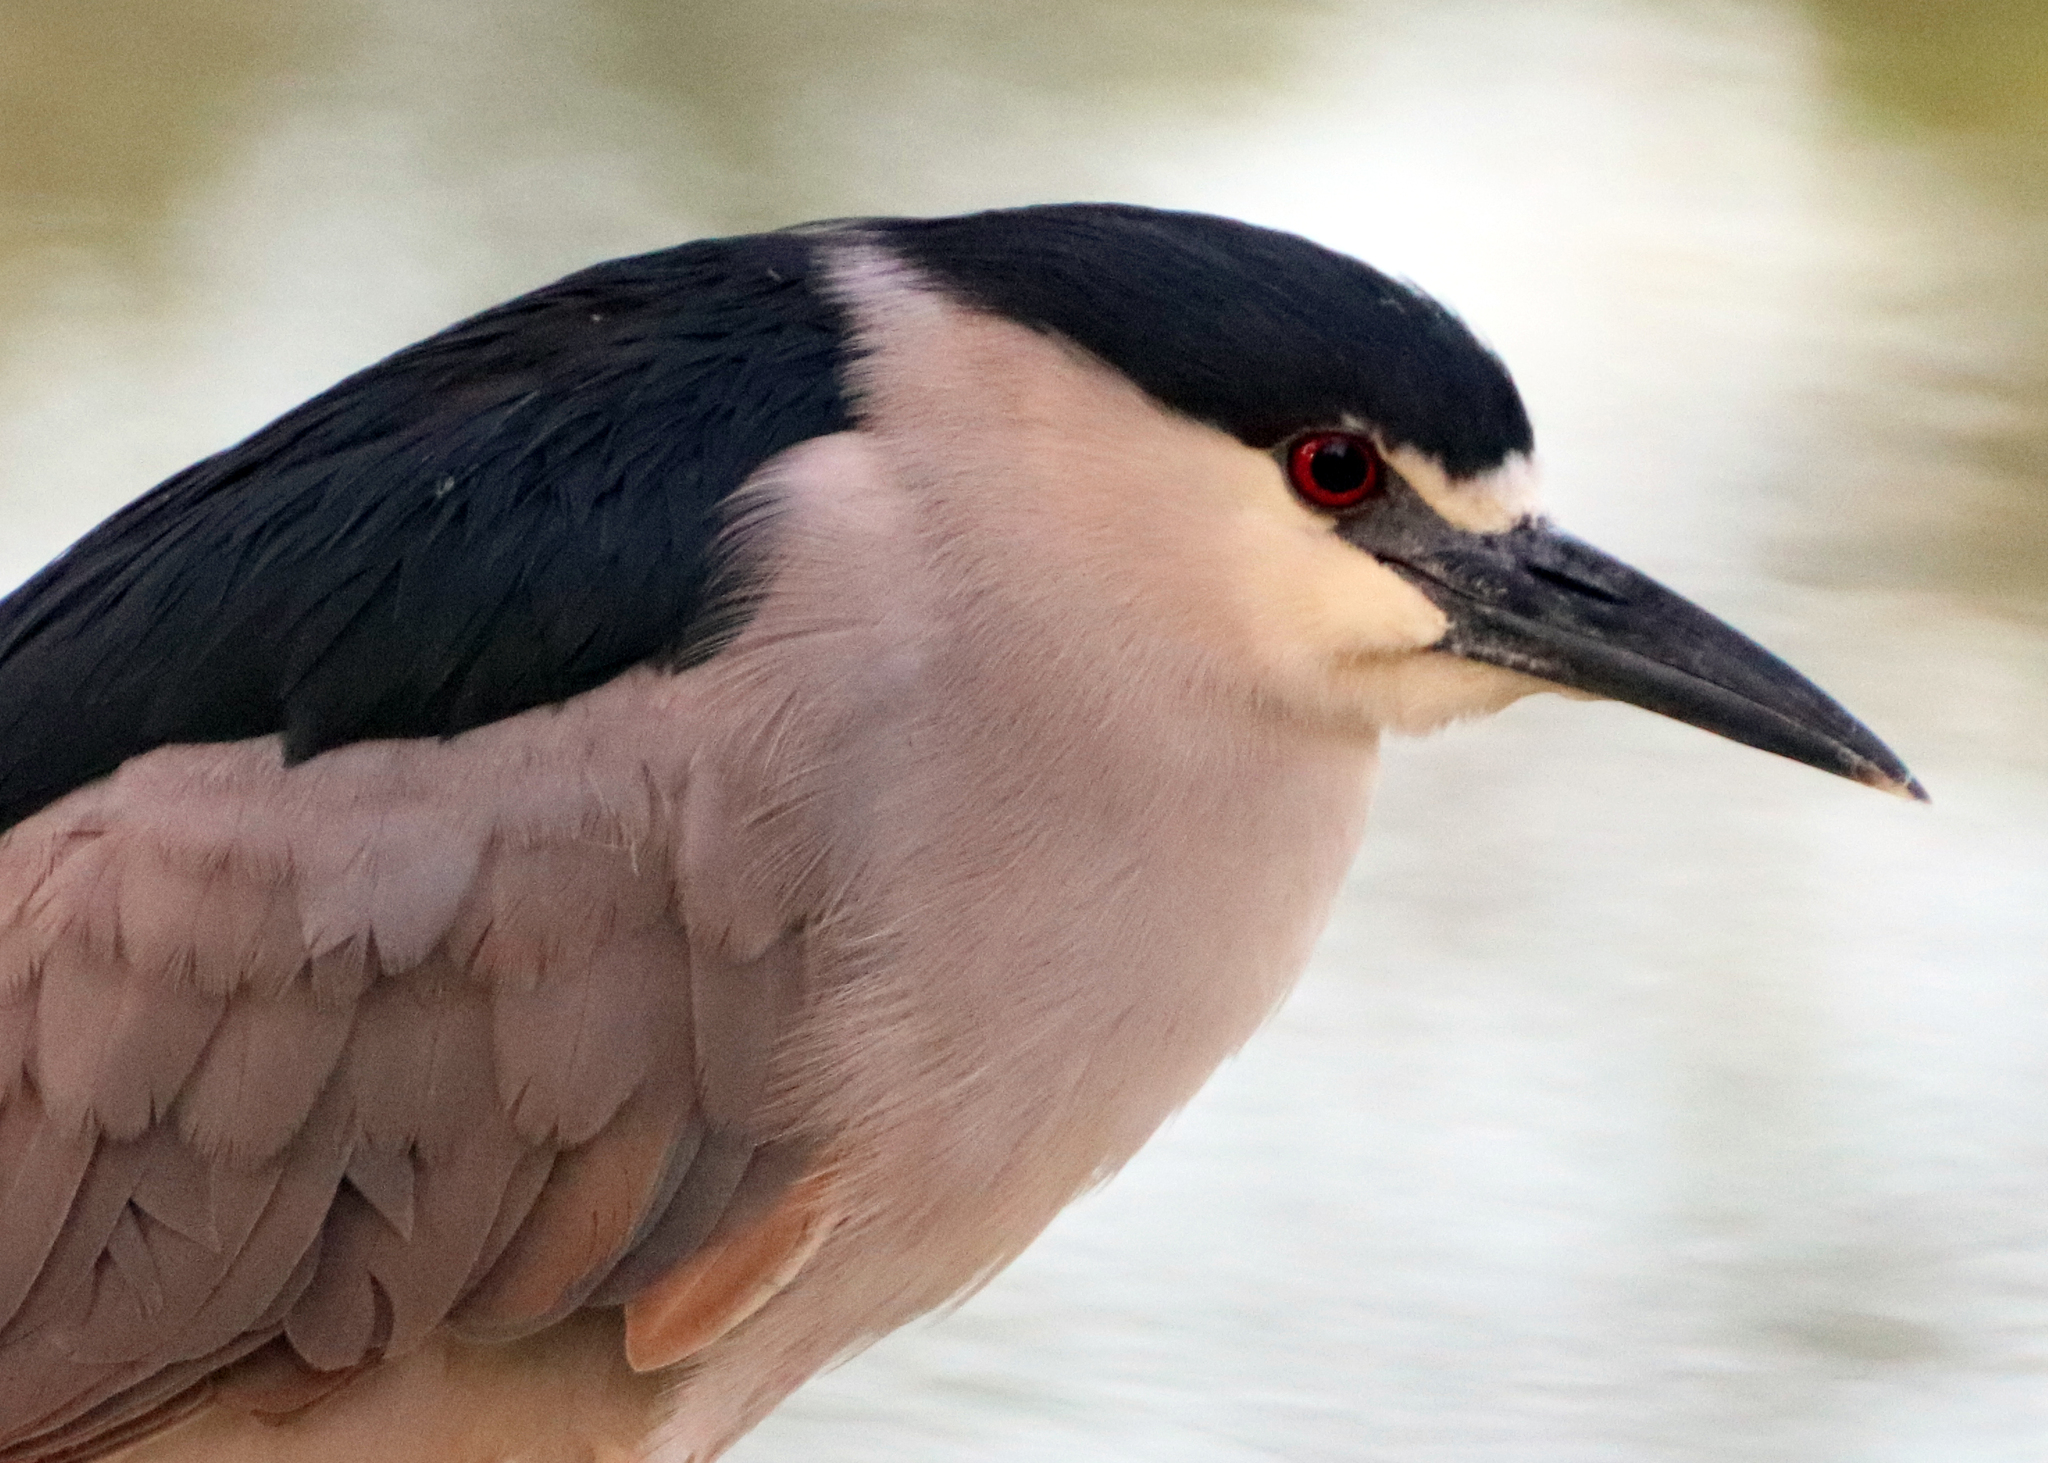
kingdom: Animalia
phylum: Chordata
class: Aves
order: Pelecaniformes
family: Ardeidae
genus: Nycticorax
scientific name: Nycticorax nycticorax
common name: Black-crowned night heron
